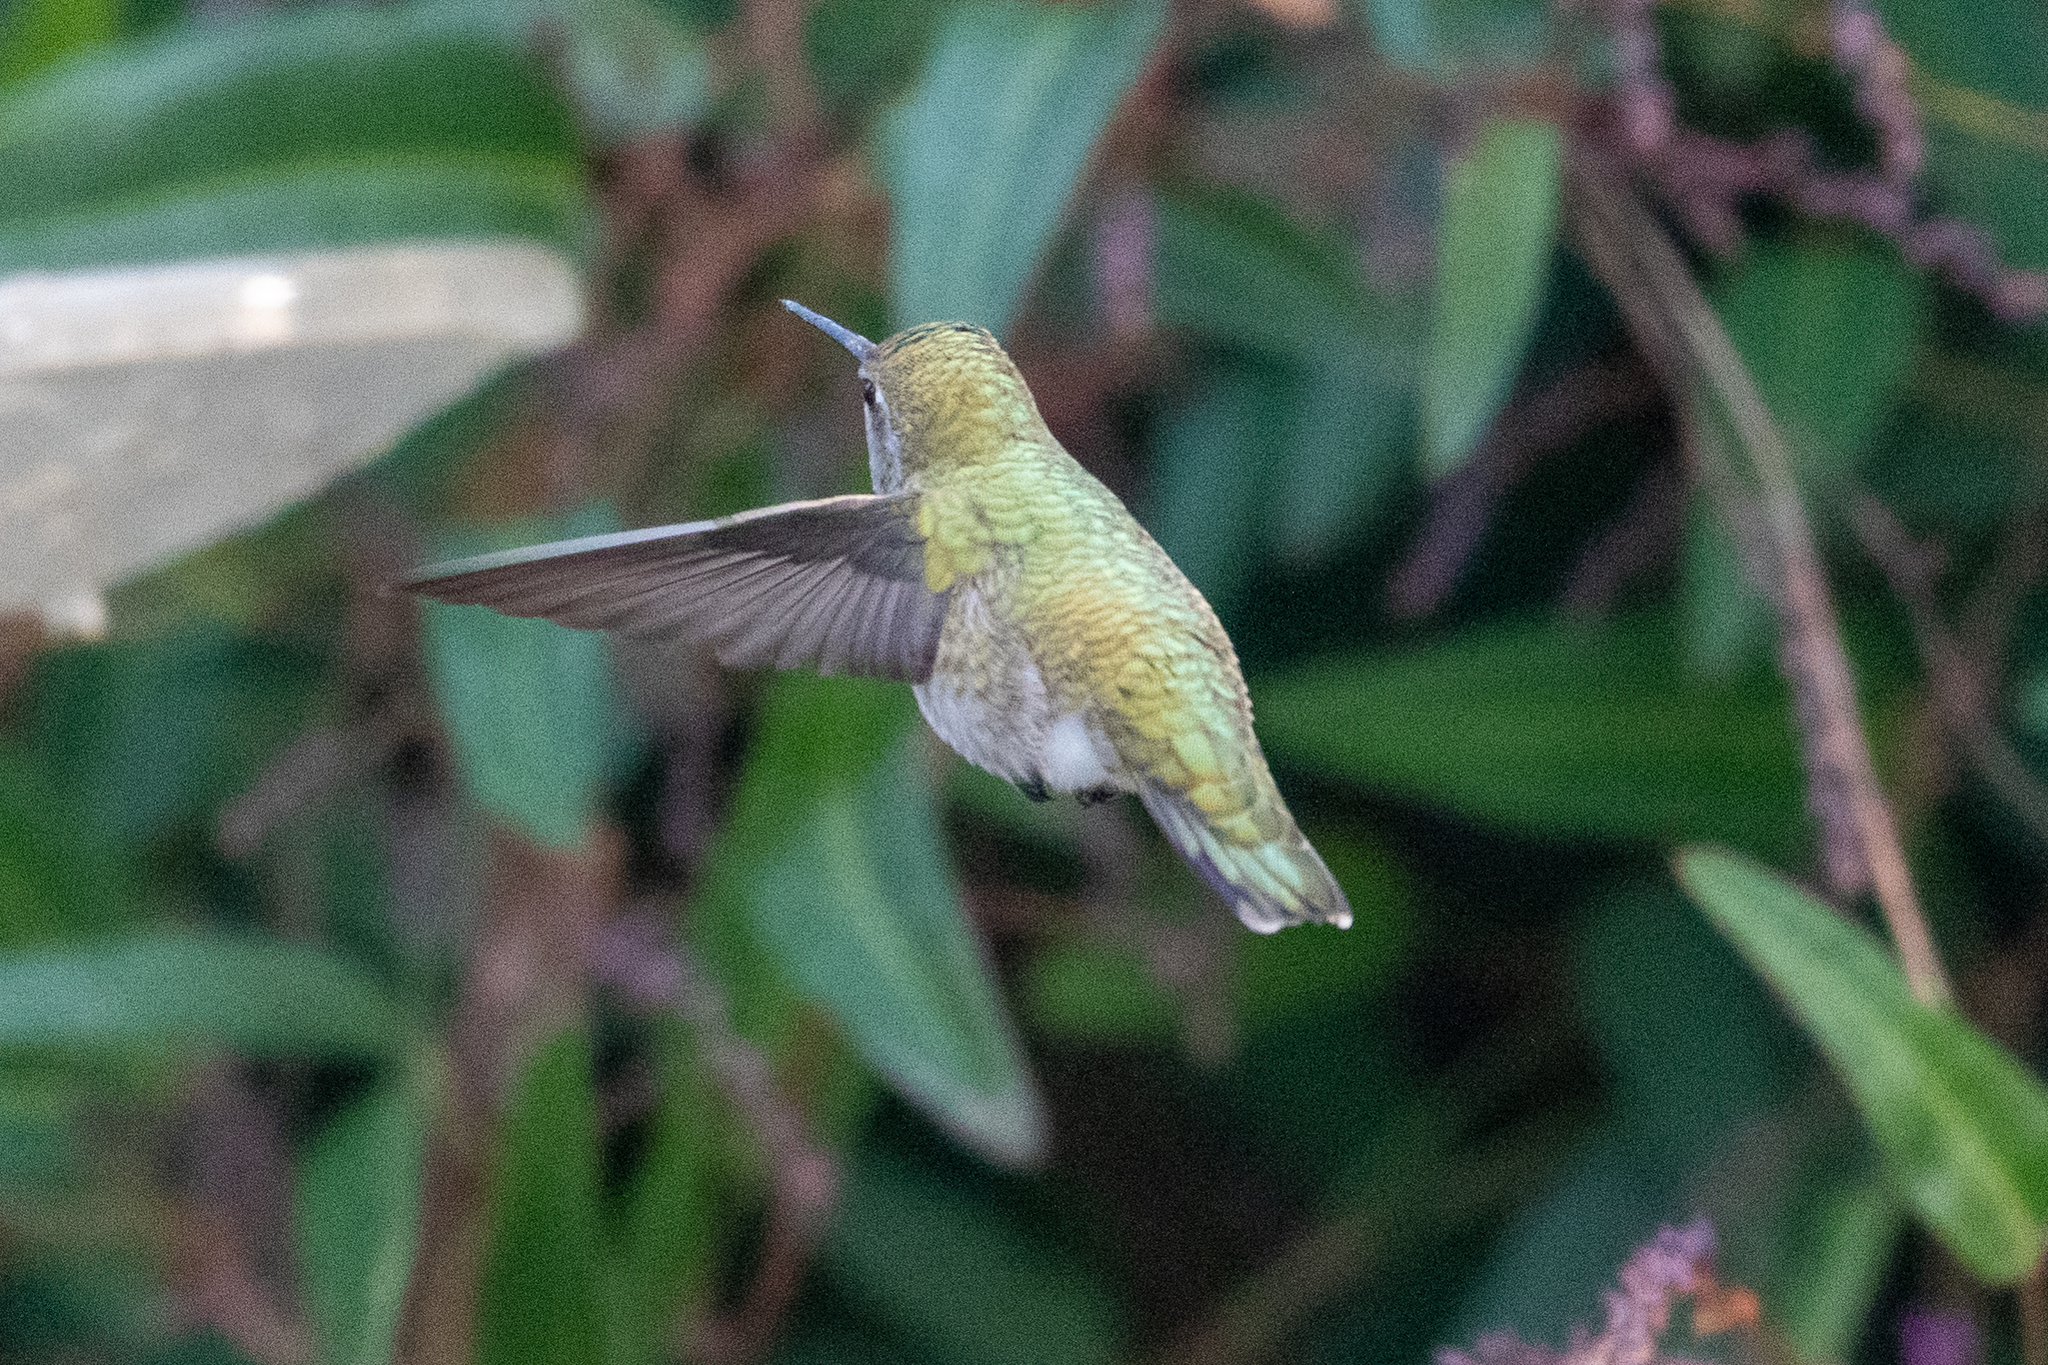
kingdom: Animalia
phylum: Chordata
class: Aves
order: Apodiformes
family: Trochilidae
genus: Calypte
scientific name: Calypte anna
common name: Anna's hummingbird
